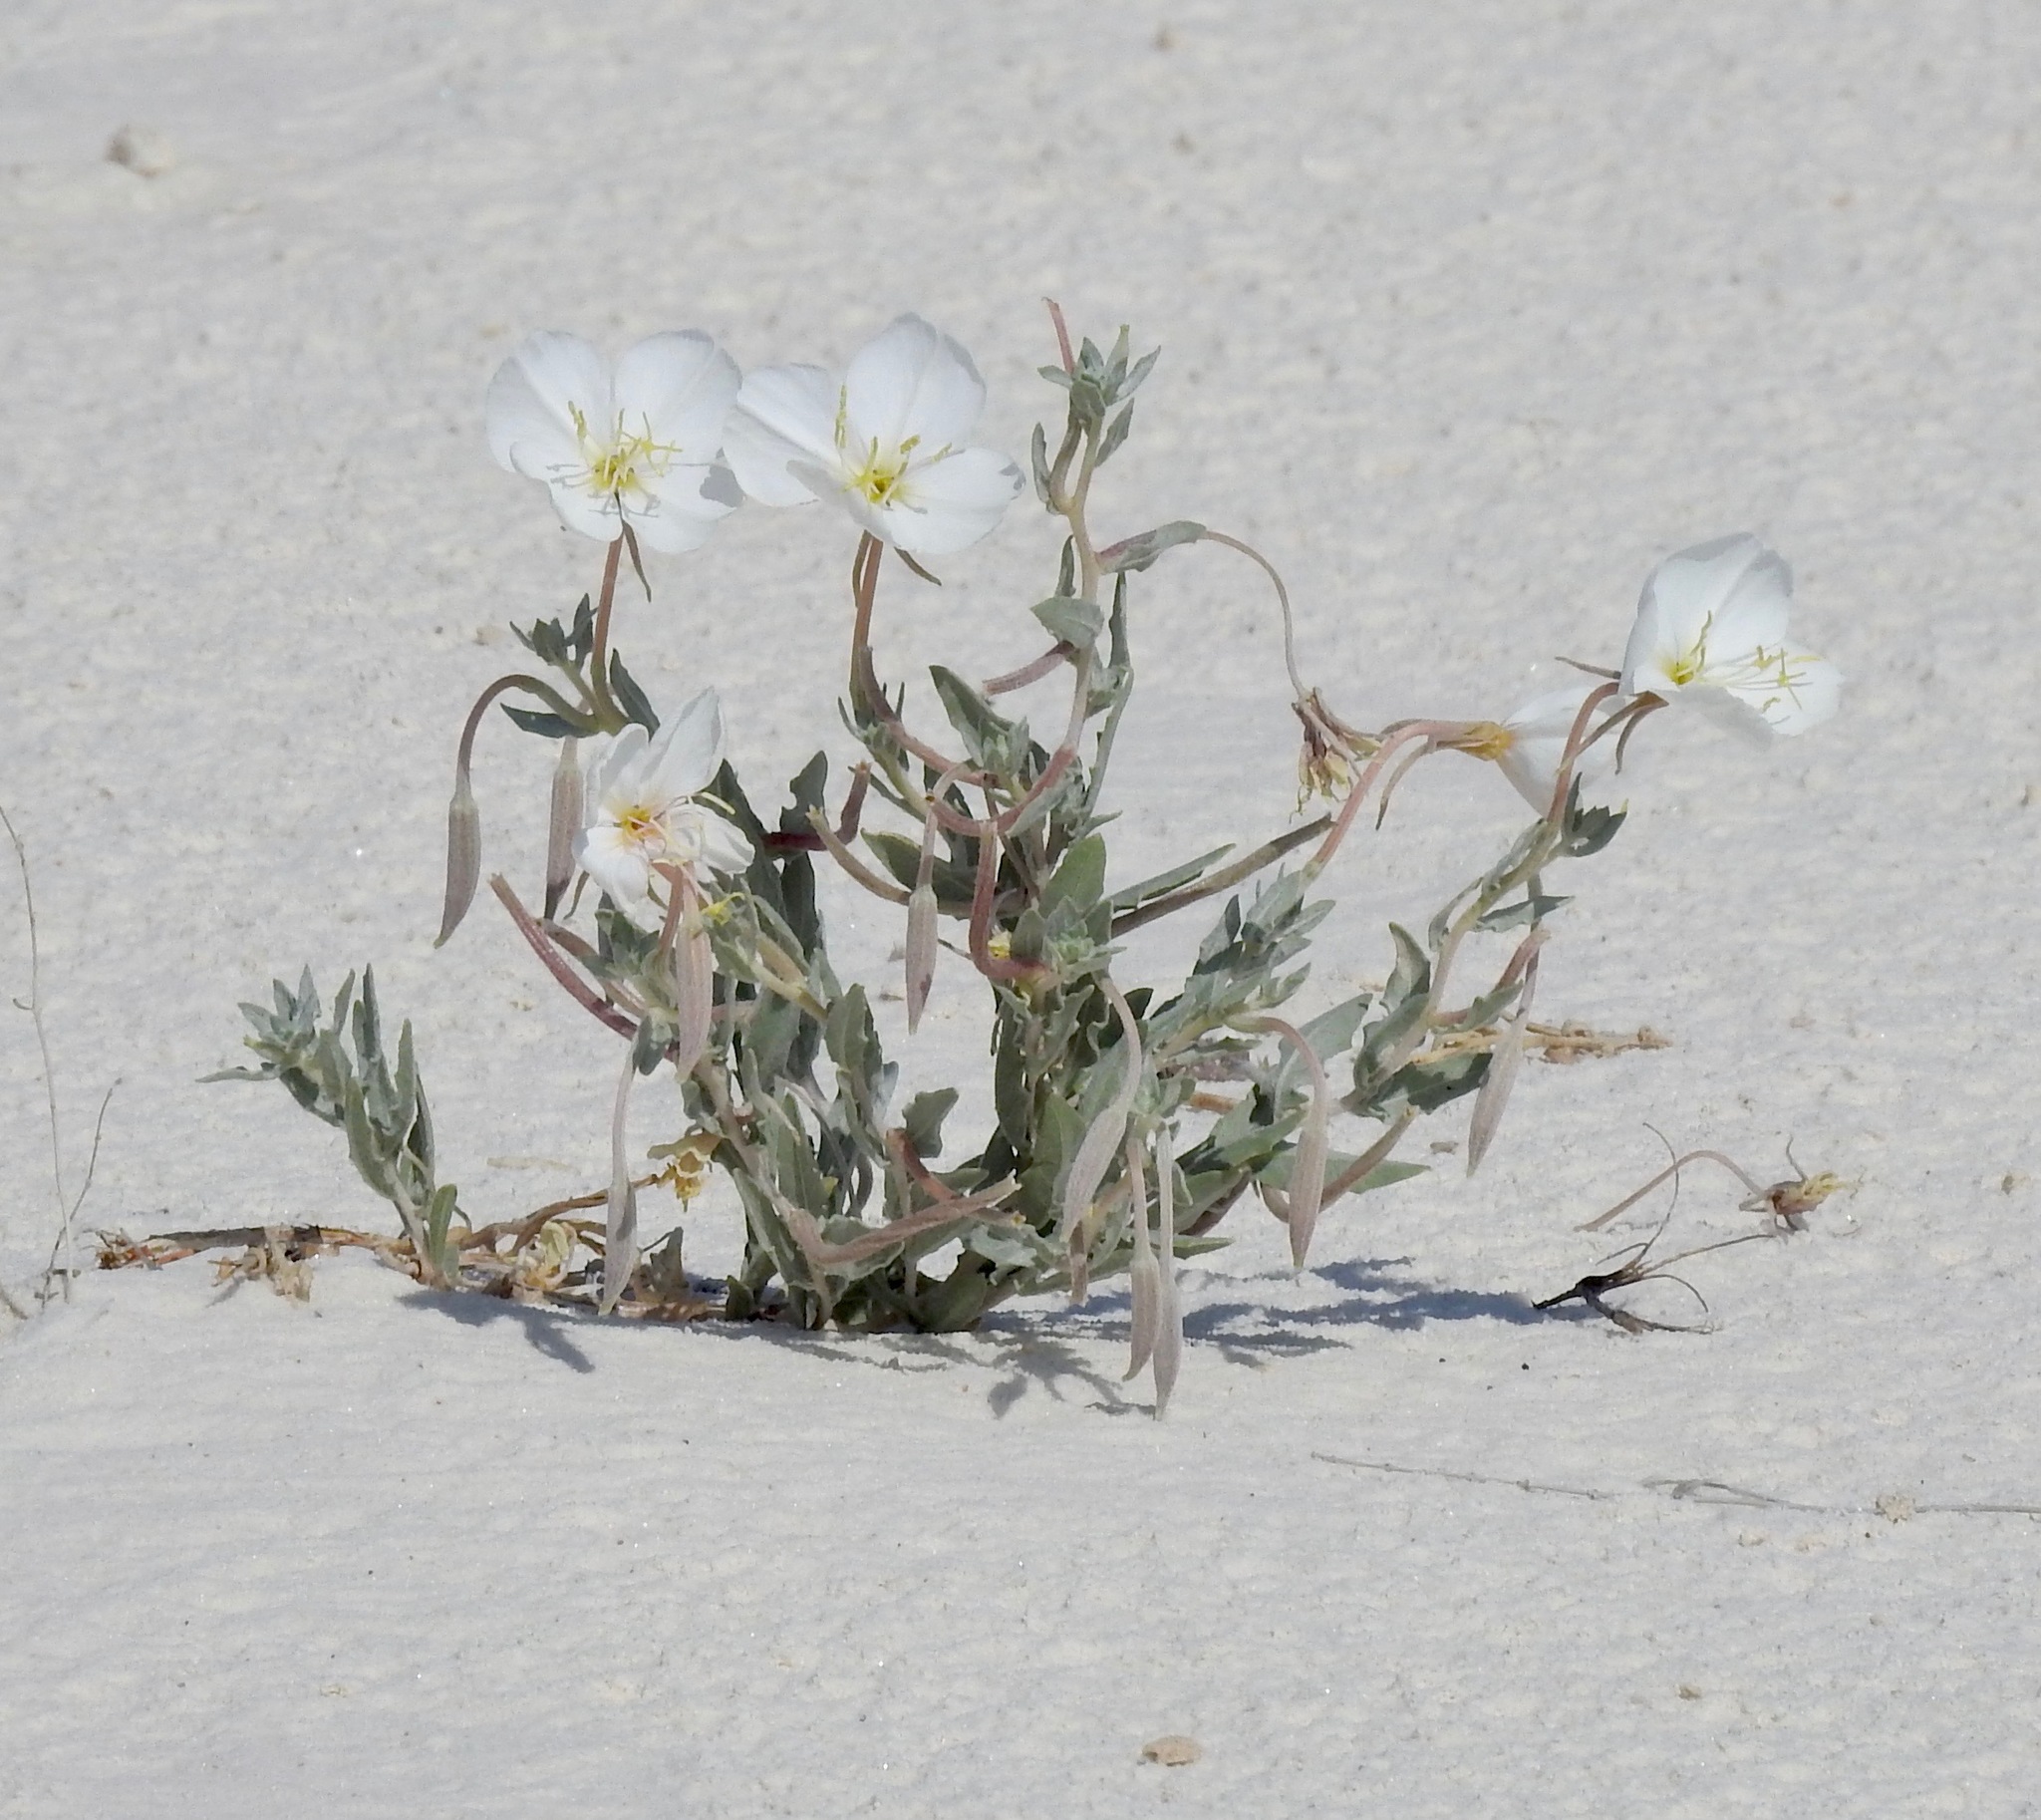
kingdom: Plantae
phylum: Tracheophyta
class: Magnoliopsida
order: Myrtales
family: Onagraceae
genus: Oenothera
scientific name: Oenothera pallida
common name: Pale evening-primrose
